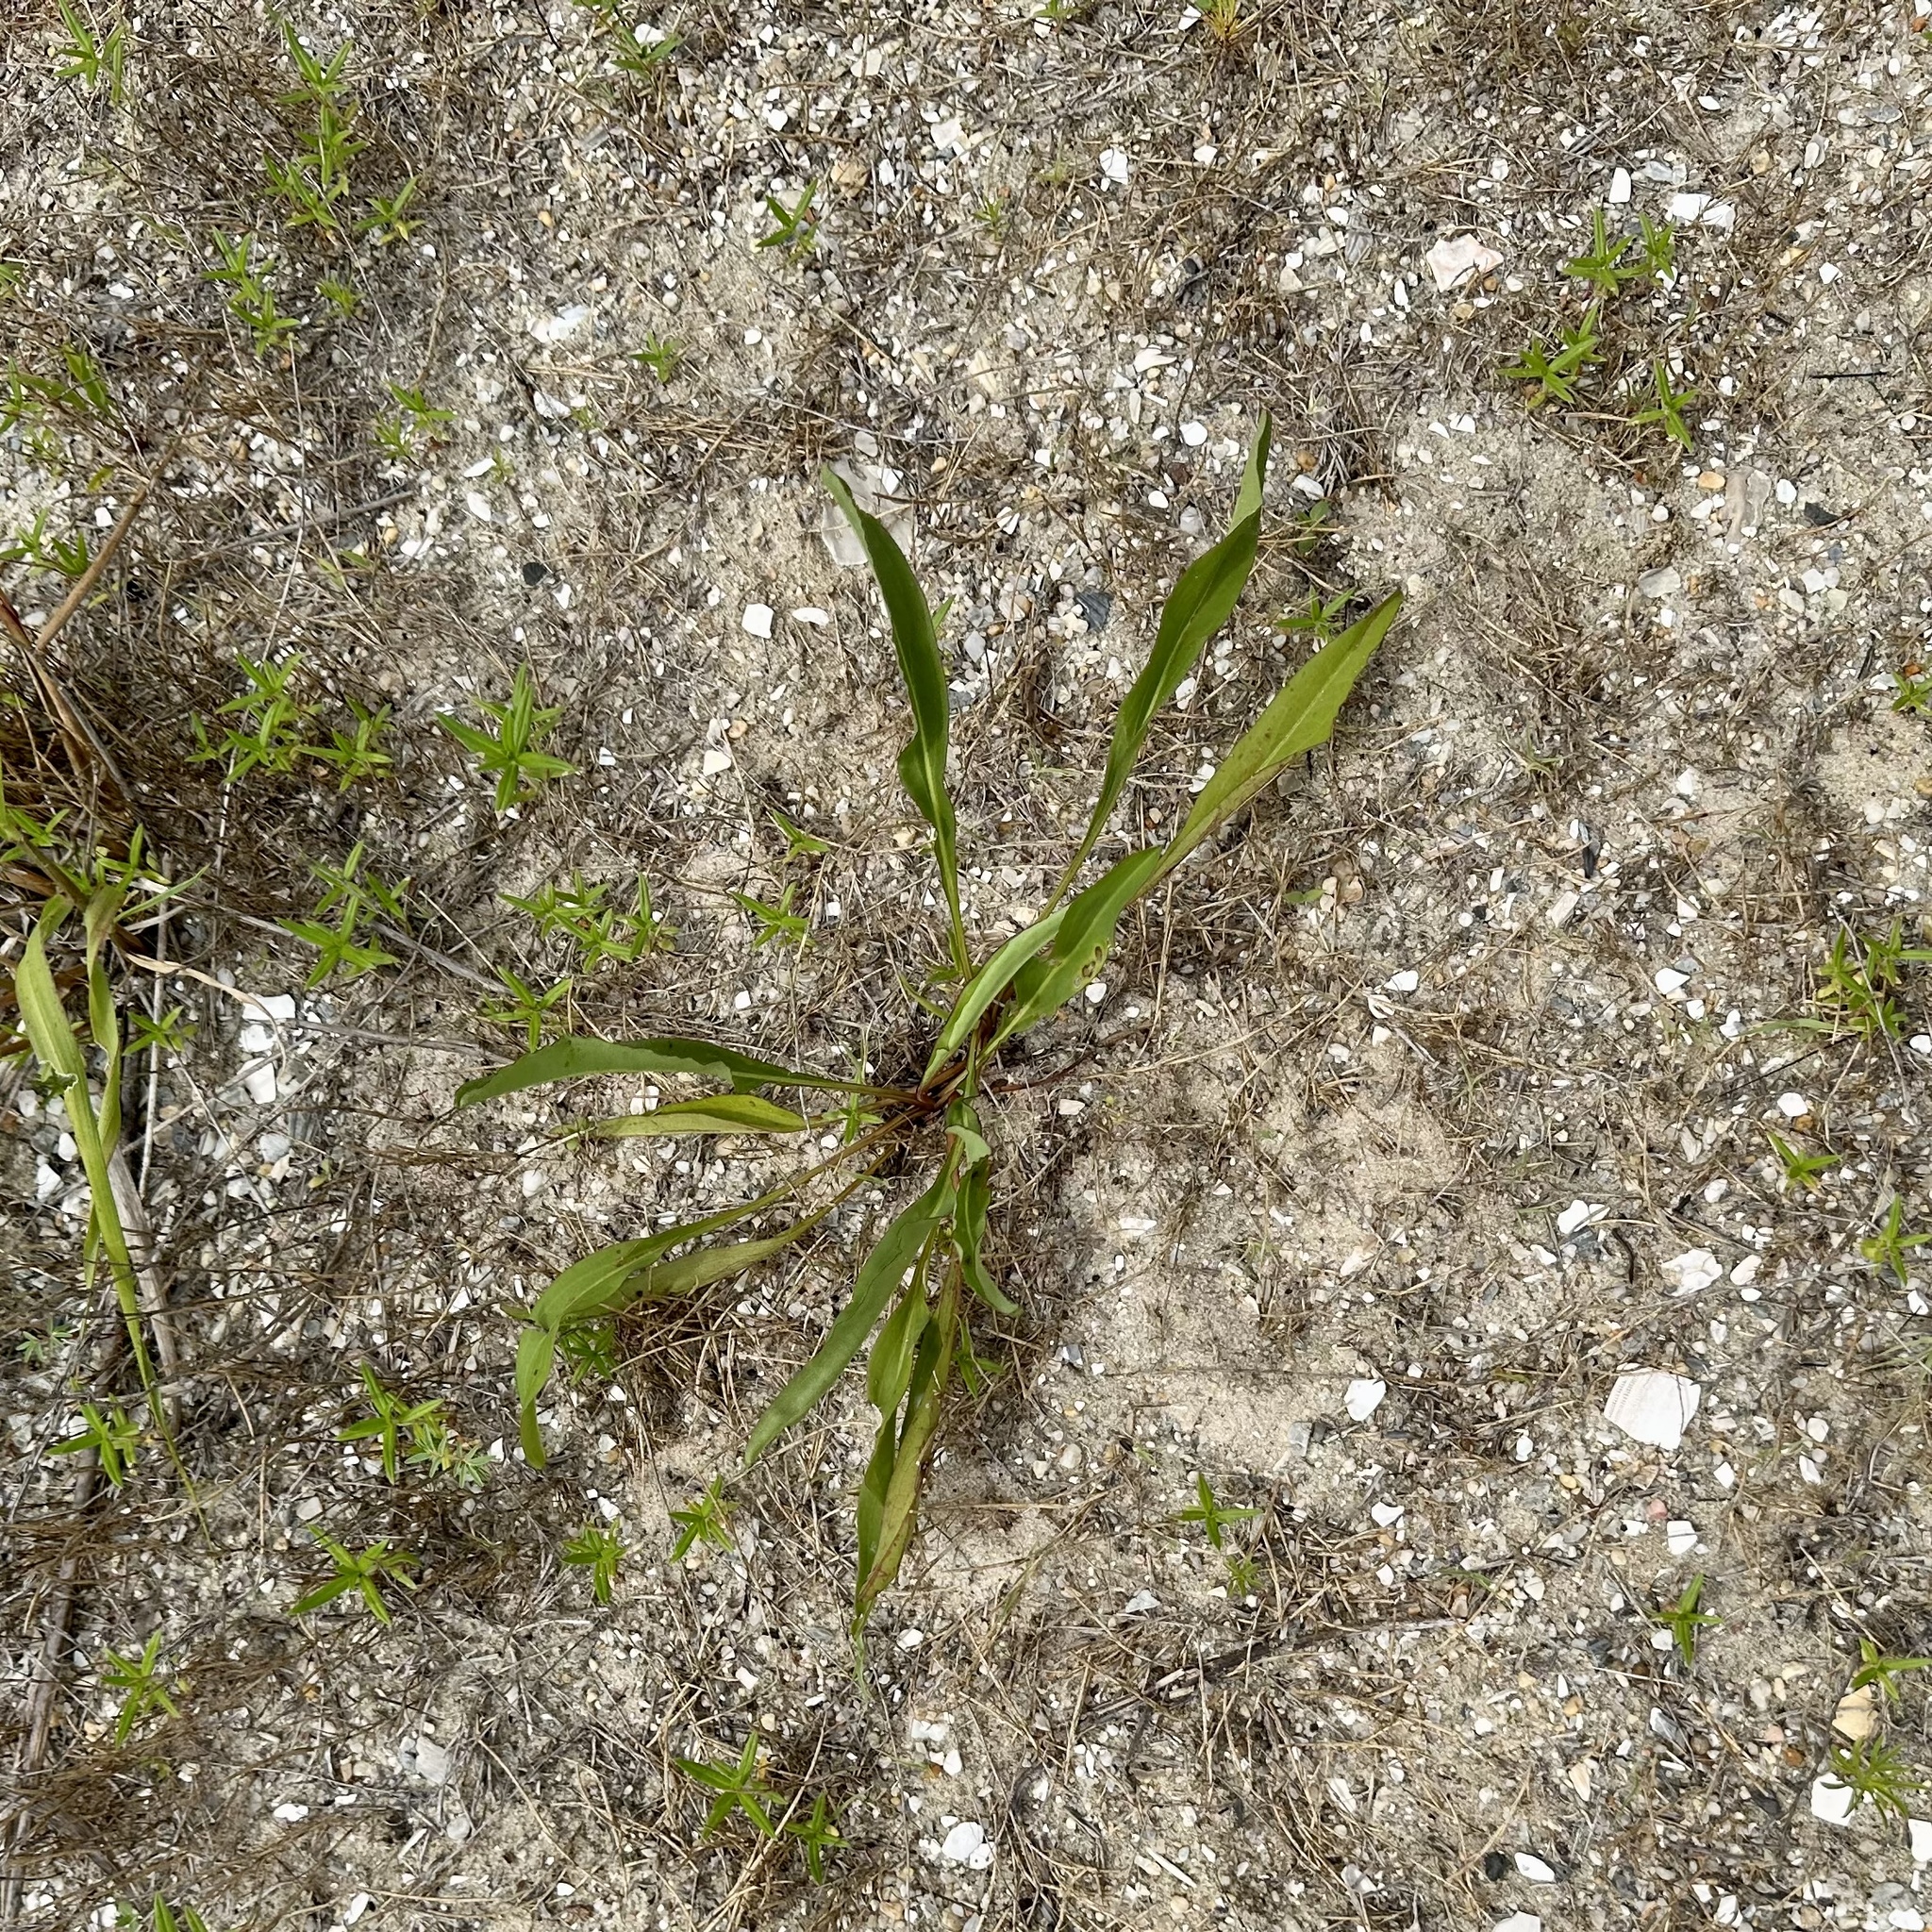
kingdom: Animalia
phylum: Arthropoda
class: Insecta
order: Diptera
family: Cecidomyiidae
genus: Asteromyia
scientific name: Asteromyia carbonifera
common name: Carbonifera goldenrod gall midge
